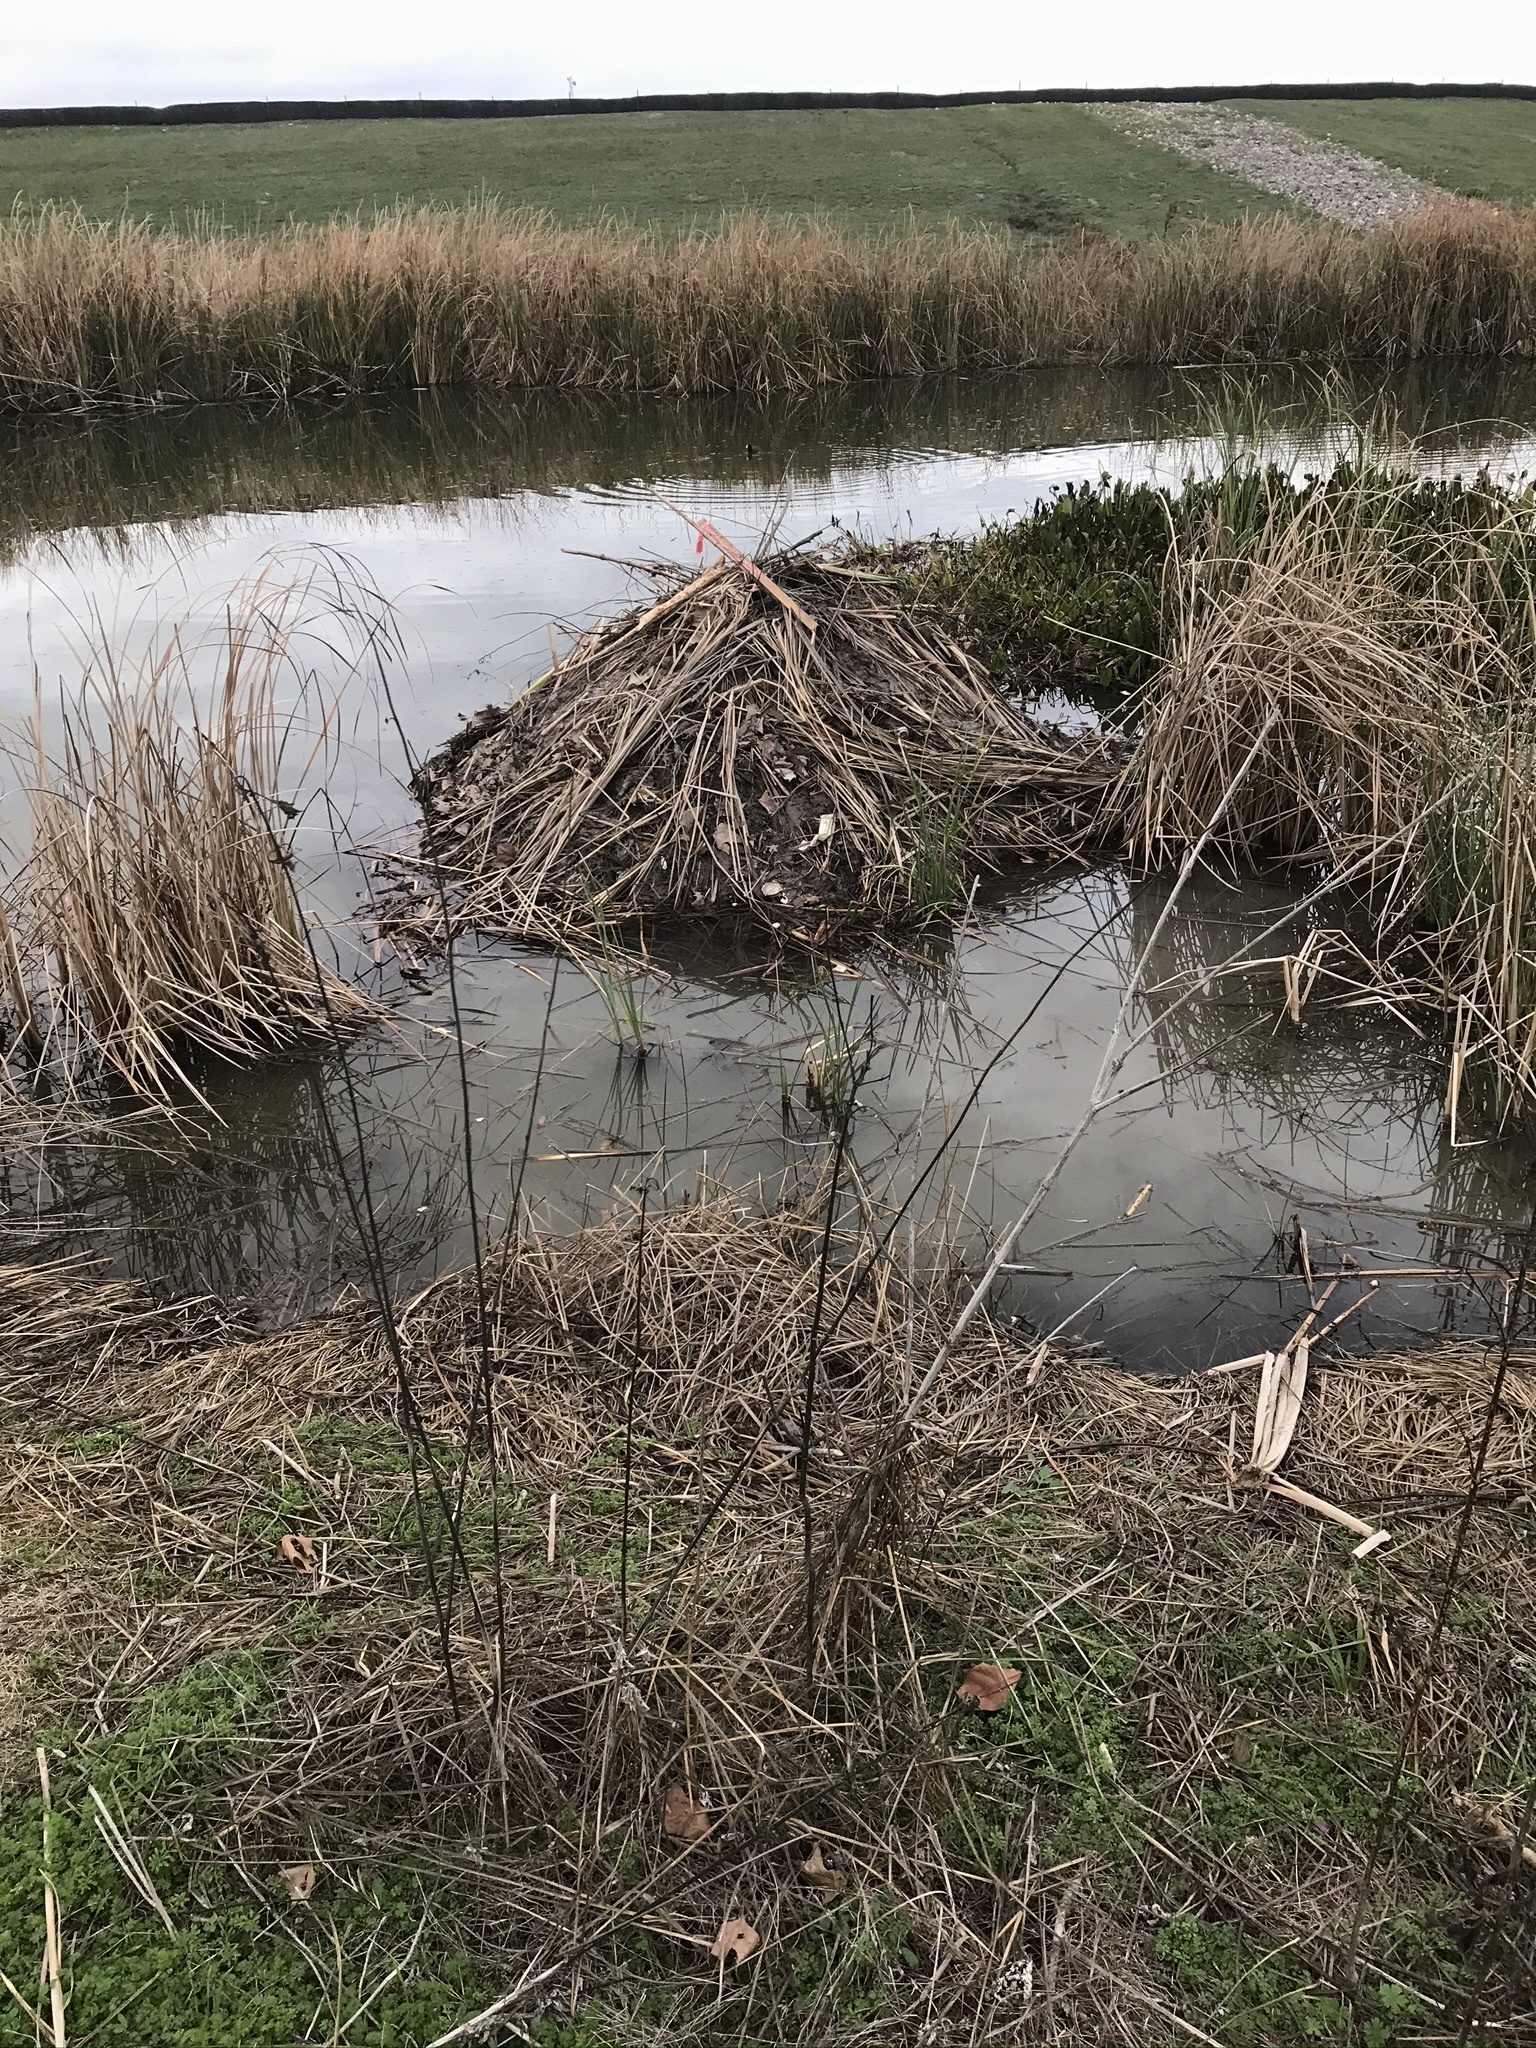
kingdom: Animalia
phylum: Chordata
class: Mammalia
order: Rodentia
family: Castoridae
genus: Castor
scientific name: Castor canadensis
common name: American beaver
